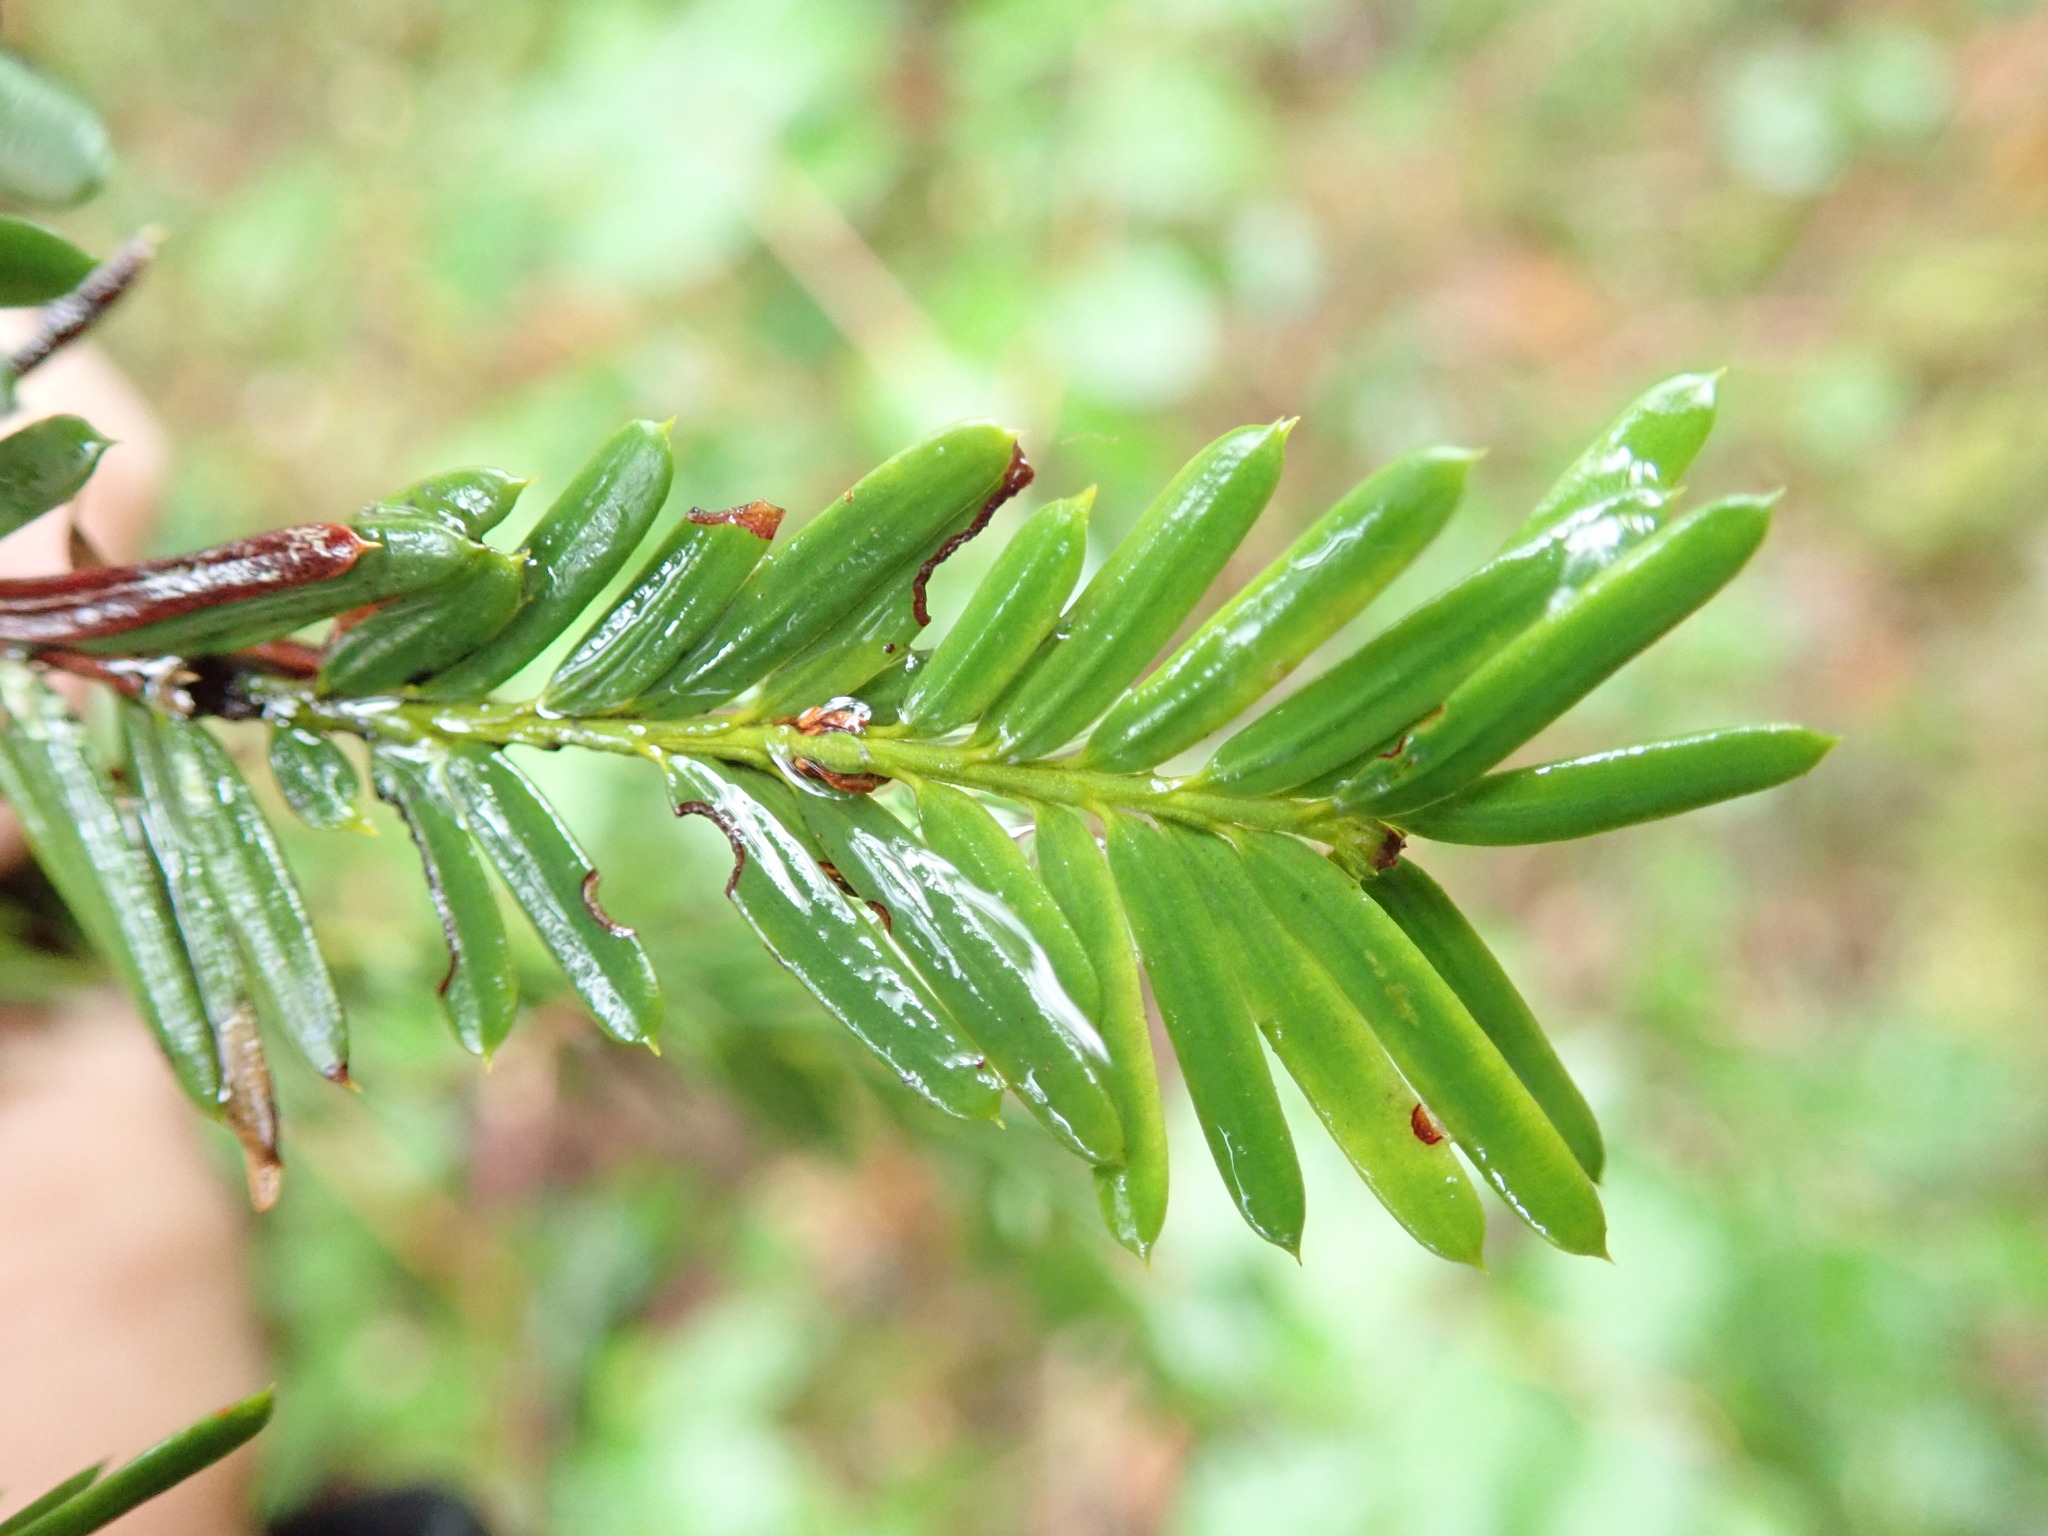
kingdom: Plantae
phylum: Tracheophyta
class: Pinopsida
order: Pinales
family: Taxaceae
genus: Taxus
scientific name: Taxus brevifolia
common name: Pacific yew
